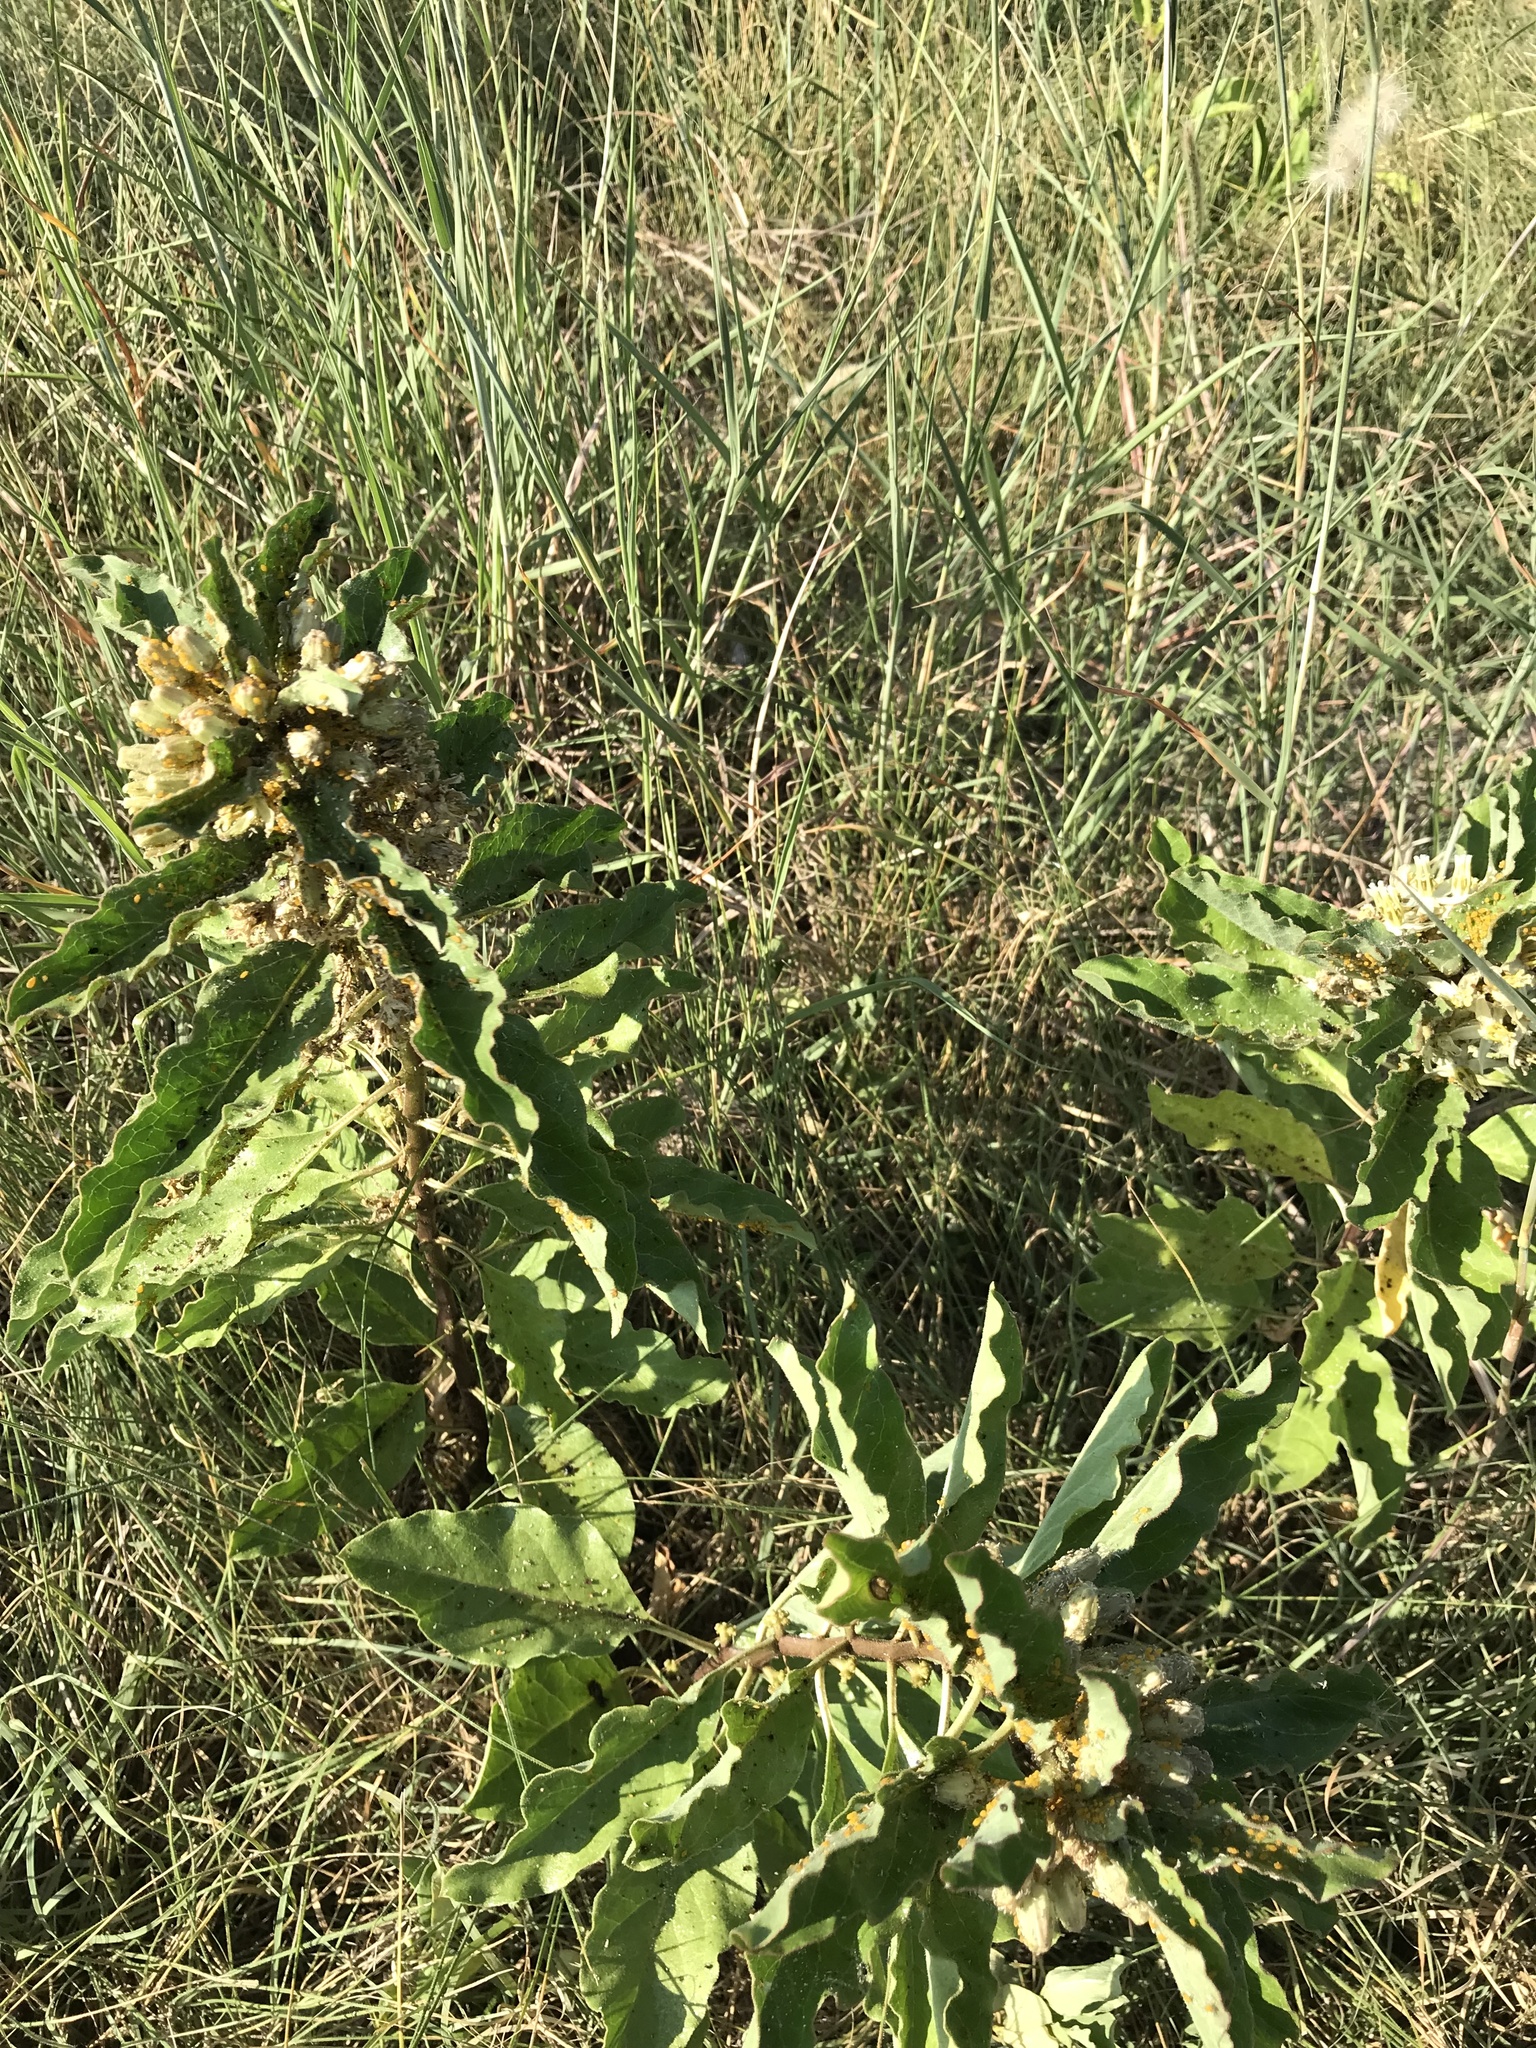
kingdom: Plantae
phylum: Tracheophyta
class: Magnoliopsida
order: Gentianales
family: Apocynaceae
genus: Asclepias
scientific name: Asclepias oenotheroides
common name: Zizotes milkweed
